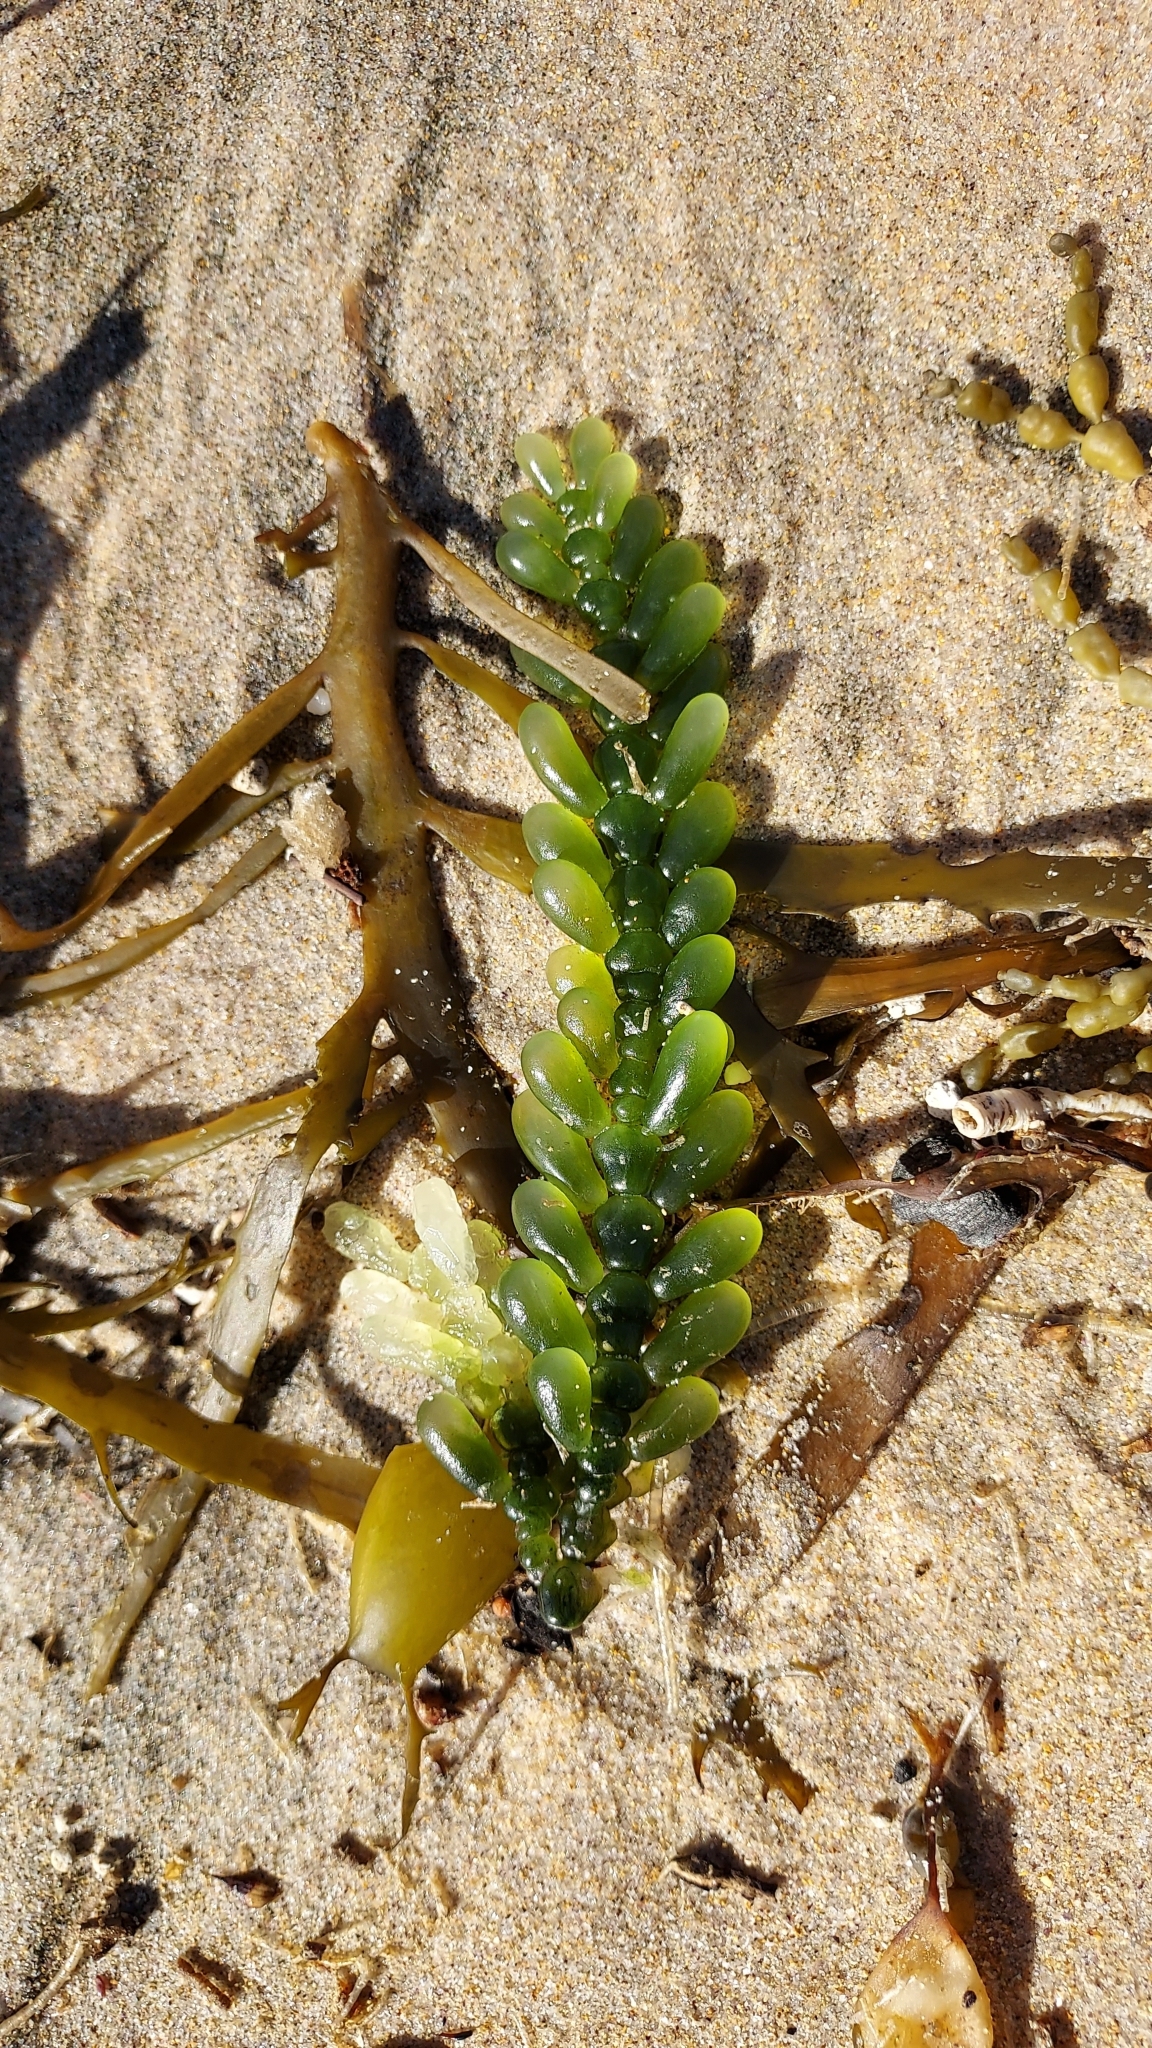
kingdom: Plantae
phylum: Chlorophyta
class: Ulvophyceae
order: Bryopsidales
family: Caulerpaceae
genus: Caulerpa
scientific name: Caulerpa cactoides
